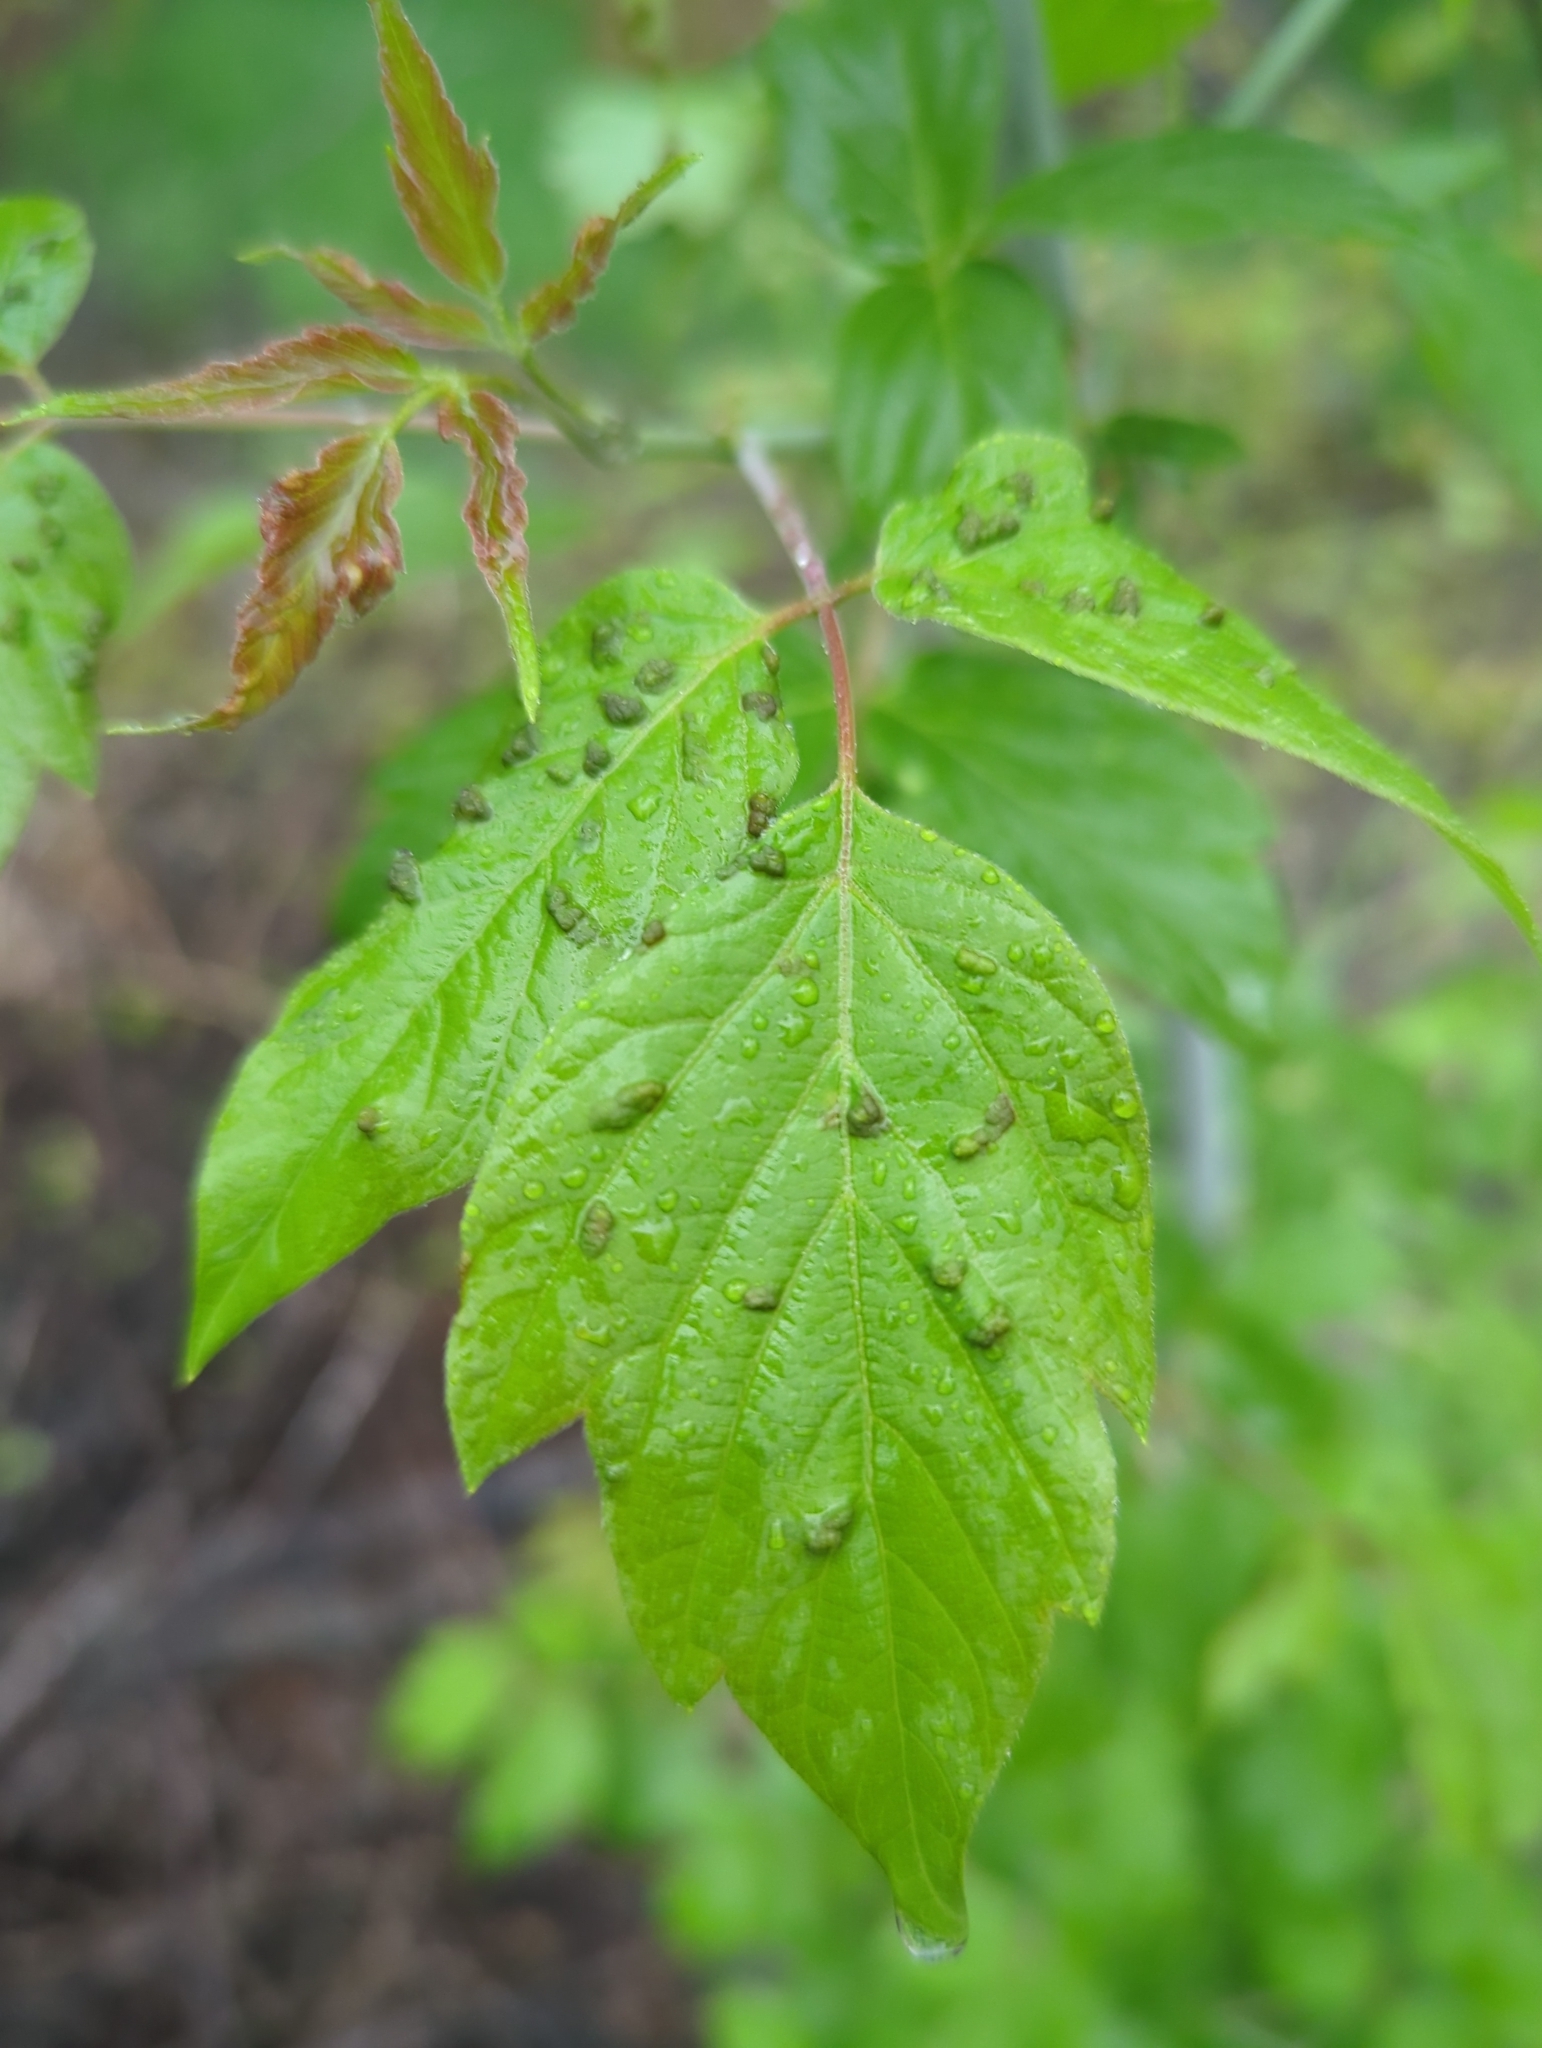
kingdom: Animalia
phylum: Arthropoda
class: Arachnida
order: Trombidiformes
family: Eriophyidae
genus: Aceria
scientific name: Aceria
